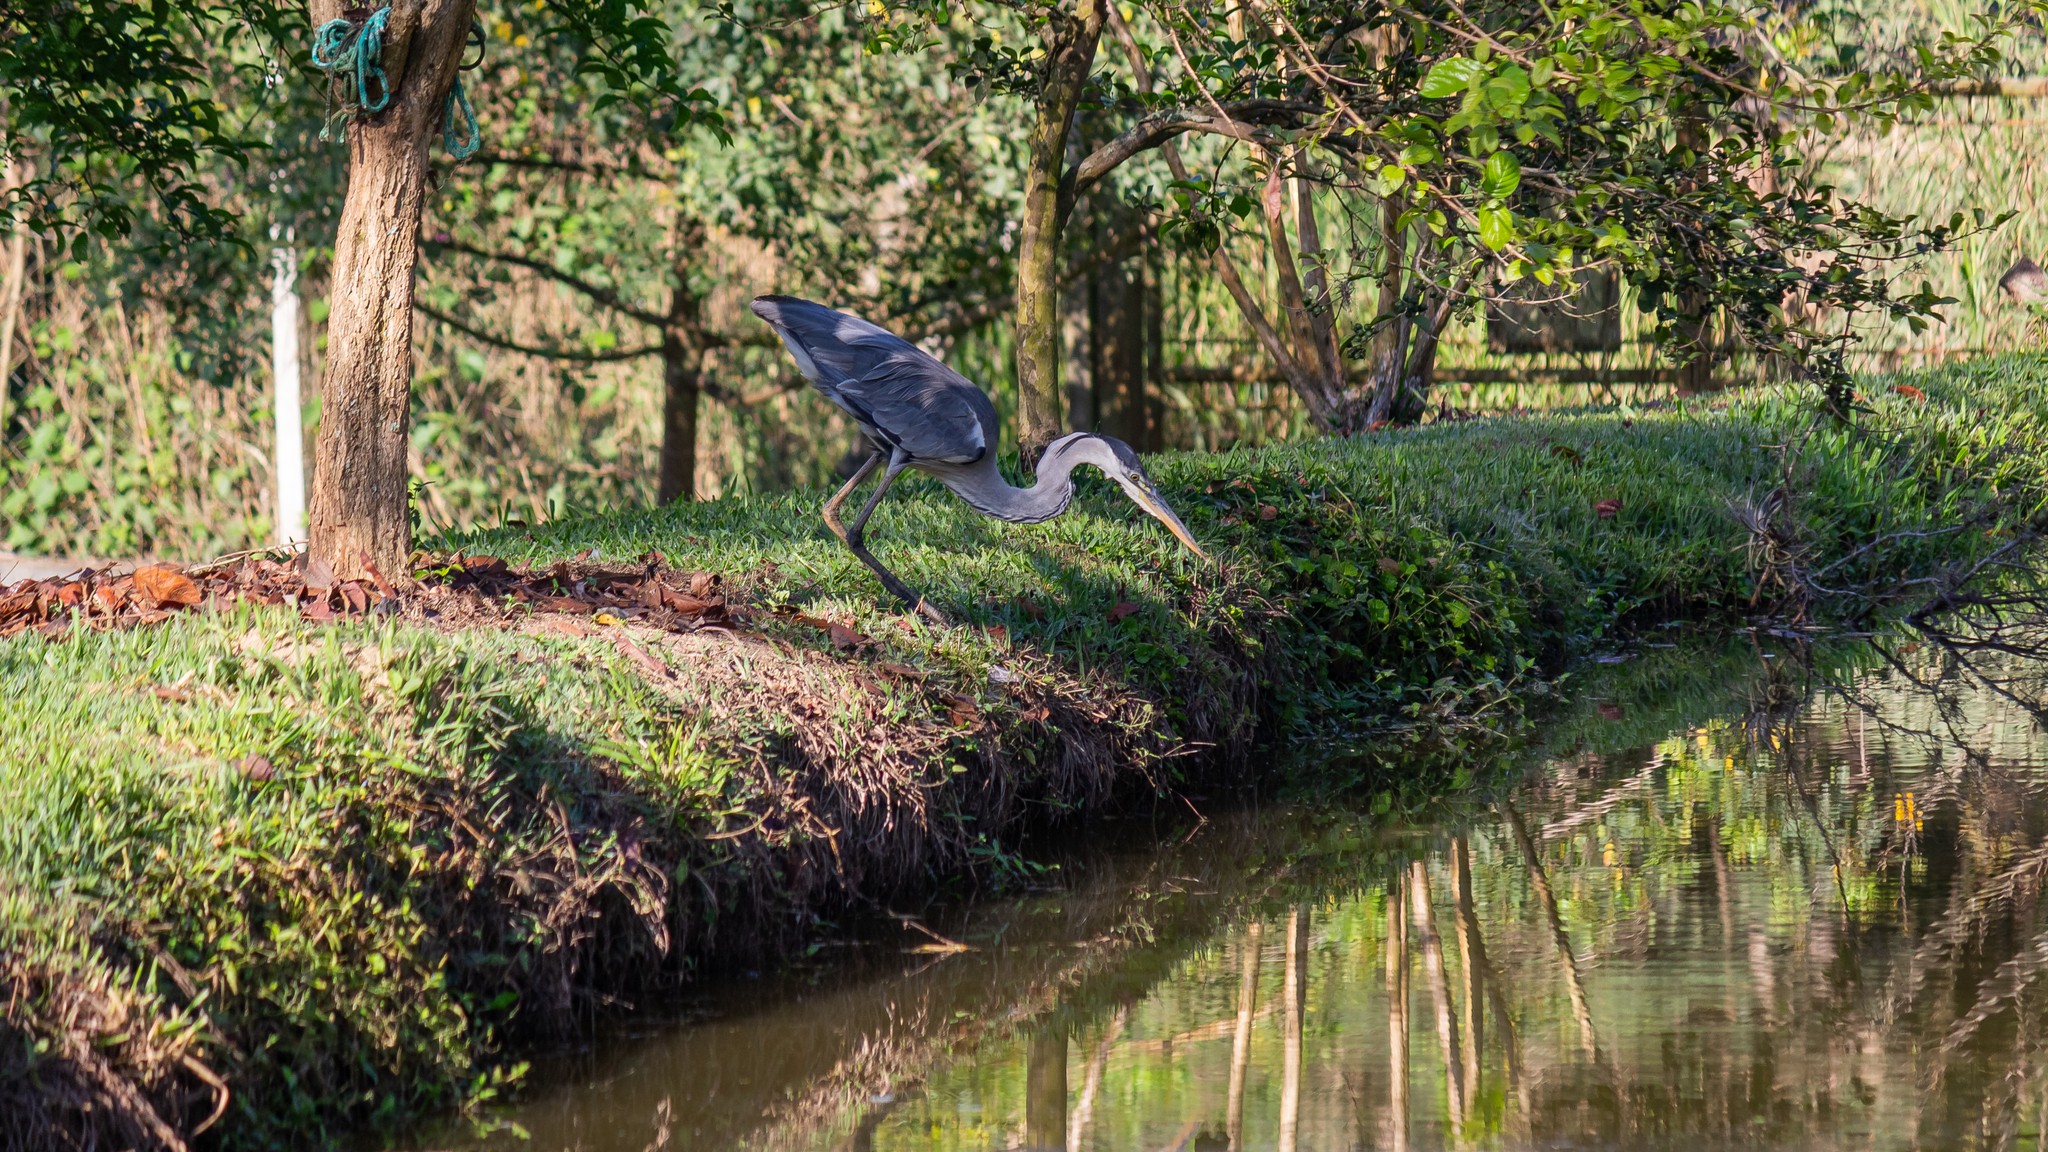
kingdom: Animalia
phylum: Chordata
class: Aves
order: Pelecaniformes
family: Ardeidae
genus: Ardea
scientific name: Ardea cocoi
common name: Cocoi heron
